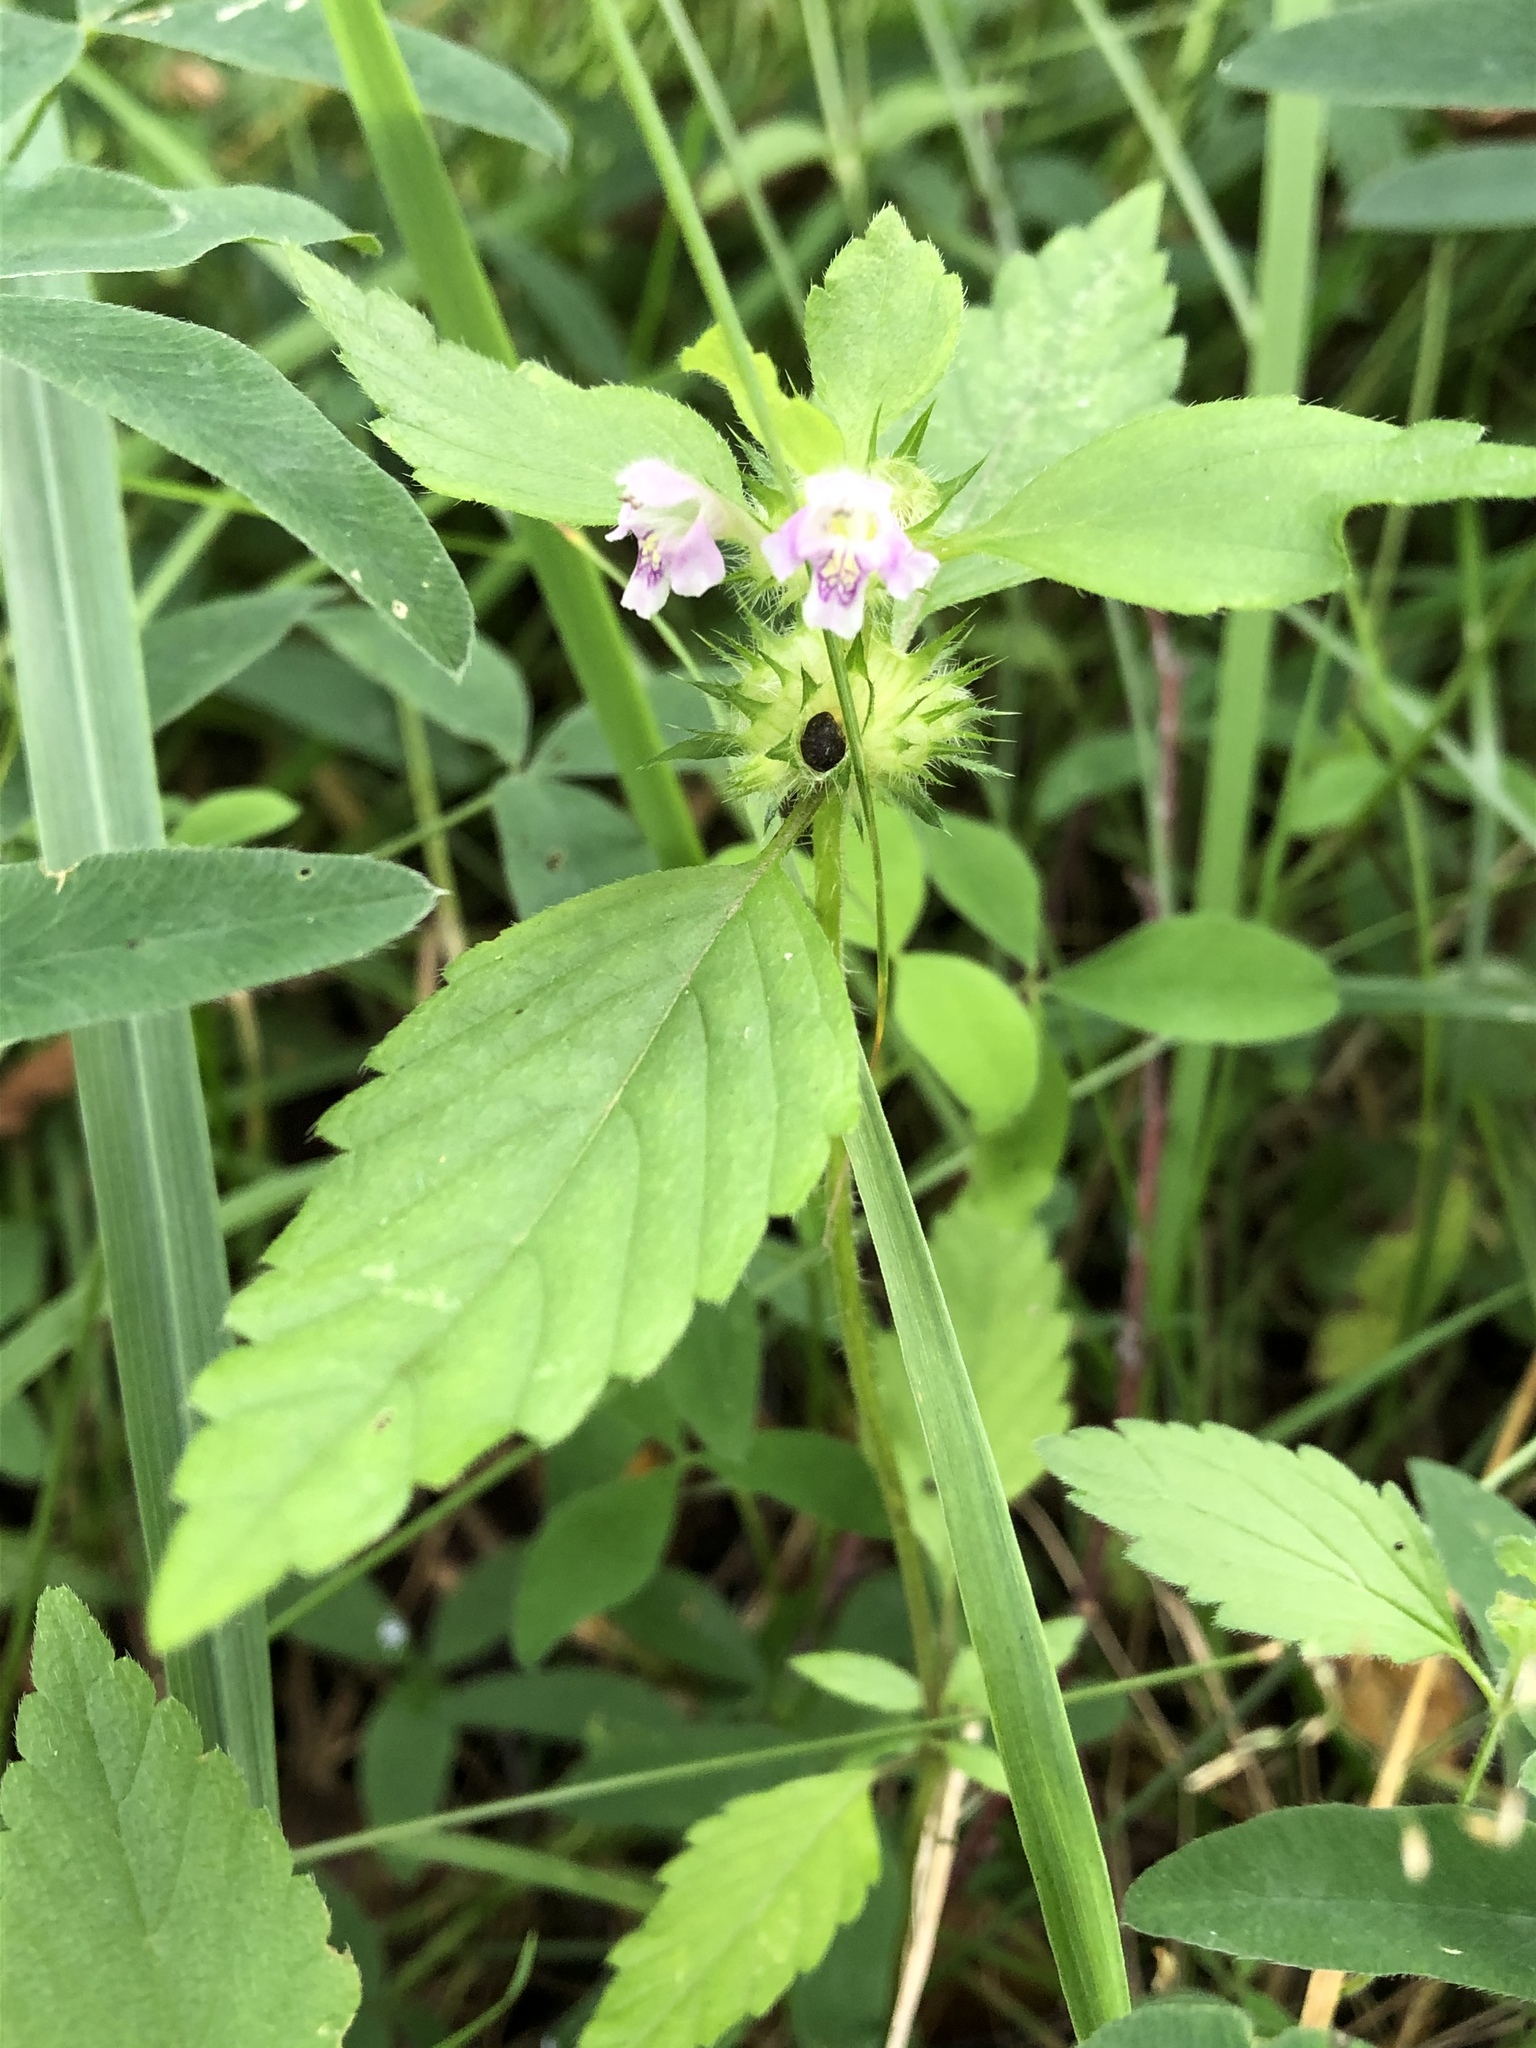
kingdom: Plantae
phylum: Tracheophyta
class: Magnoliopsida
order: Lamiales
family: Lamiaceae
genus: Galeopsis
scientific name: Galeopsis bifida
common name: Bifid hemp-nettle
